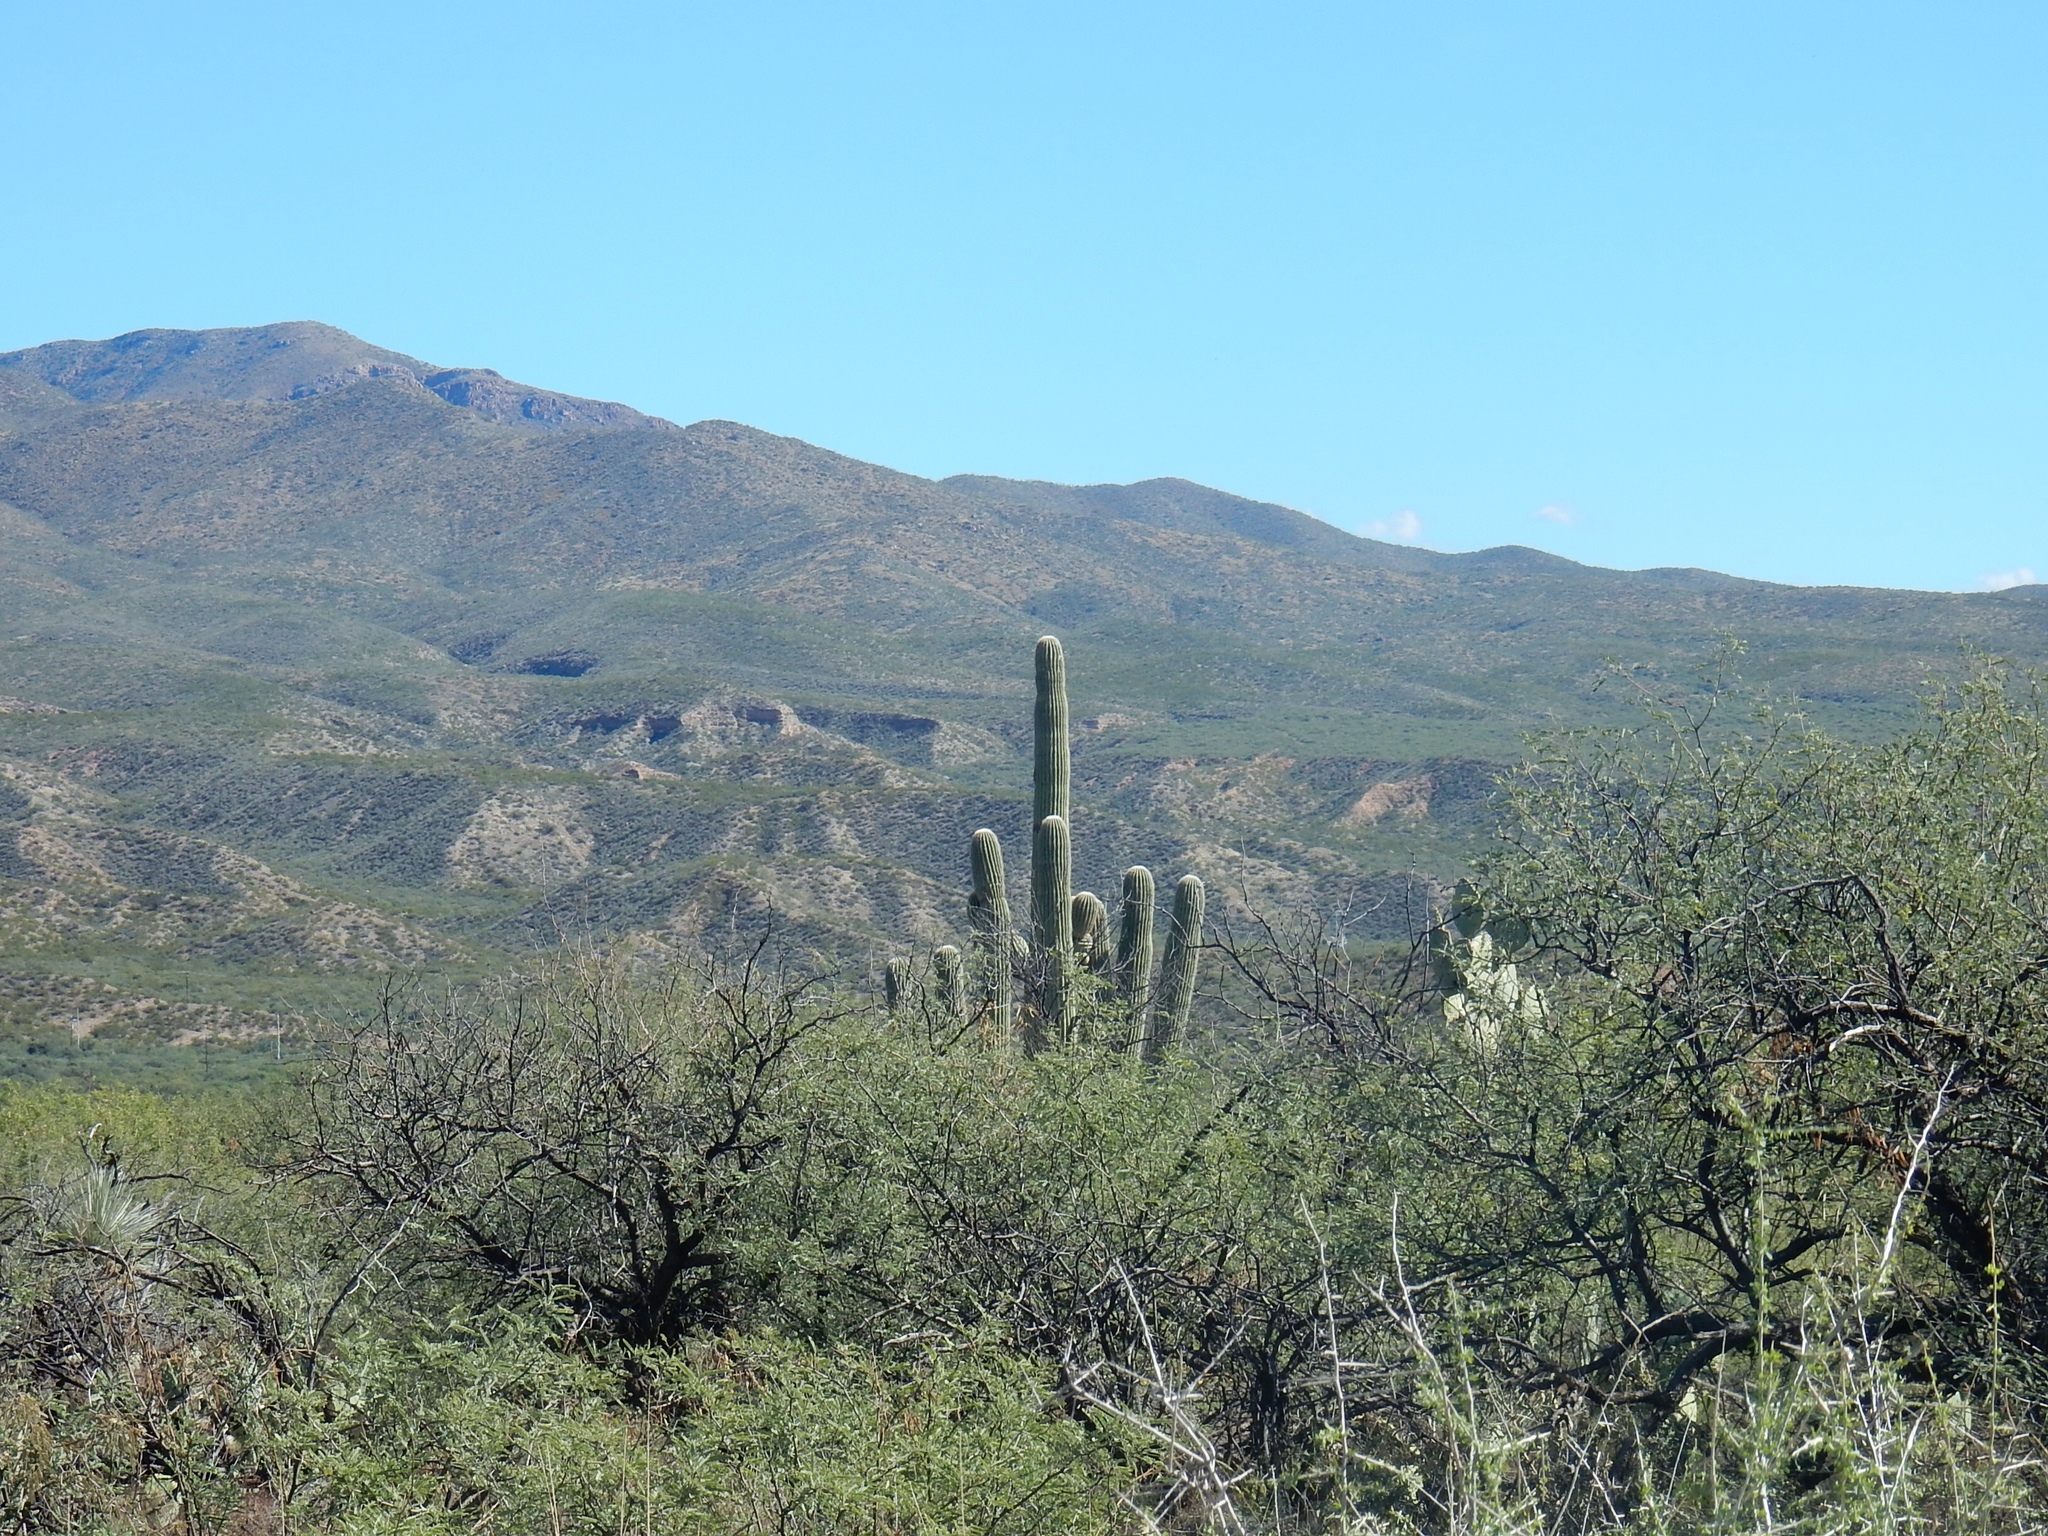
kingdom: Plantae
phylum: Tracheophyta
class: Magnoliopsida
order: Caryophyllales
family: Cactaceae
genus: Carnegiea
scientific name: Carnegiea gigantea
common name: Saguaro
